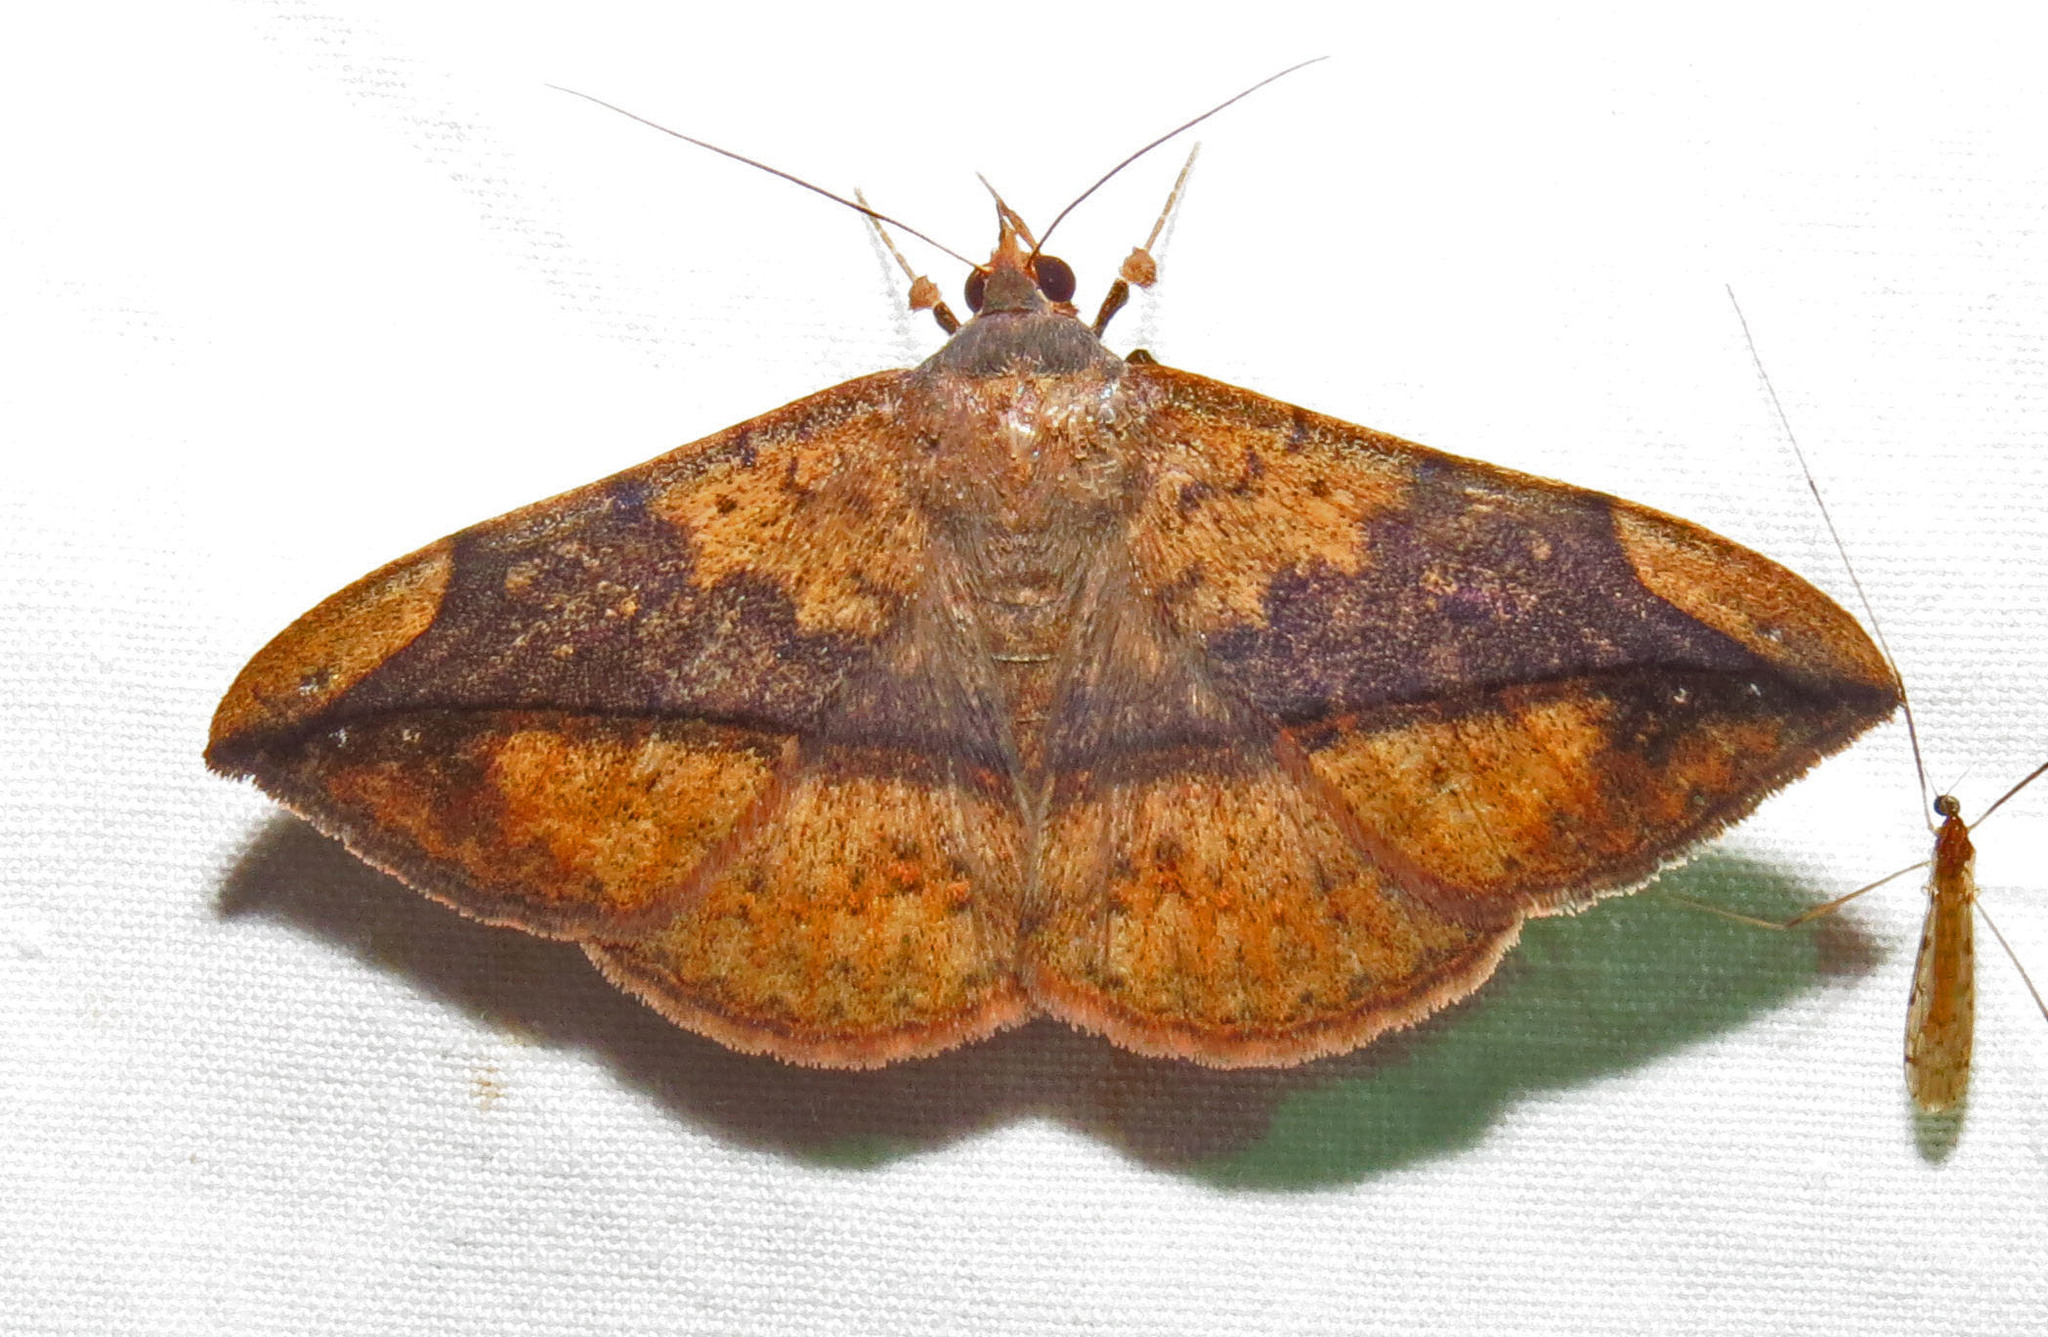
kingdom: Animalia
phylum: Arthropoda
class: Insecta
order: Lepidoptera
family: Erebidae
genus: Anticarsia
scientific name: Anticarsia gemmatalis
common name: Cutworm moth
